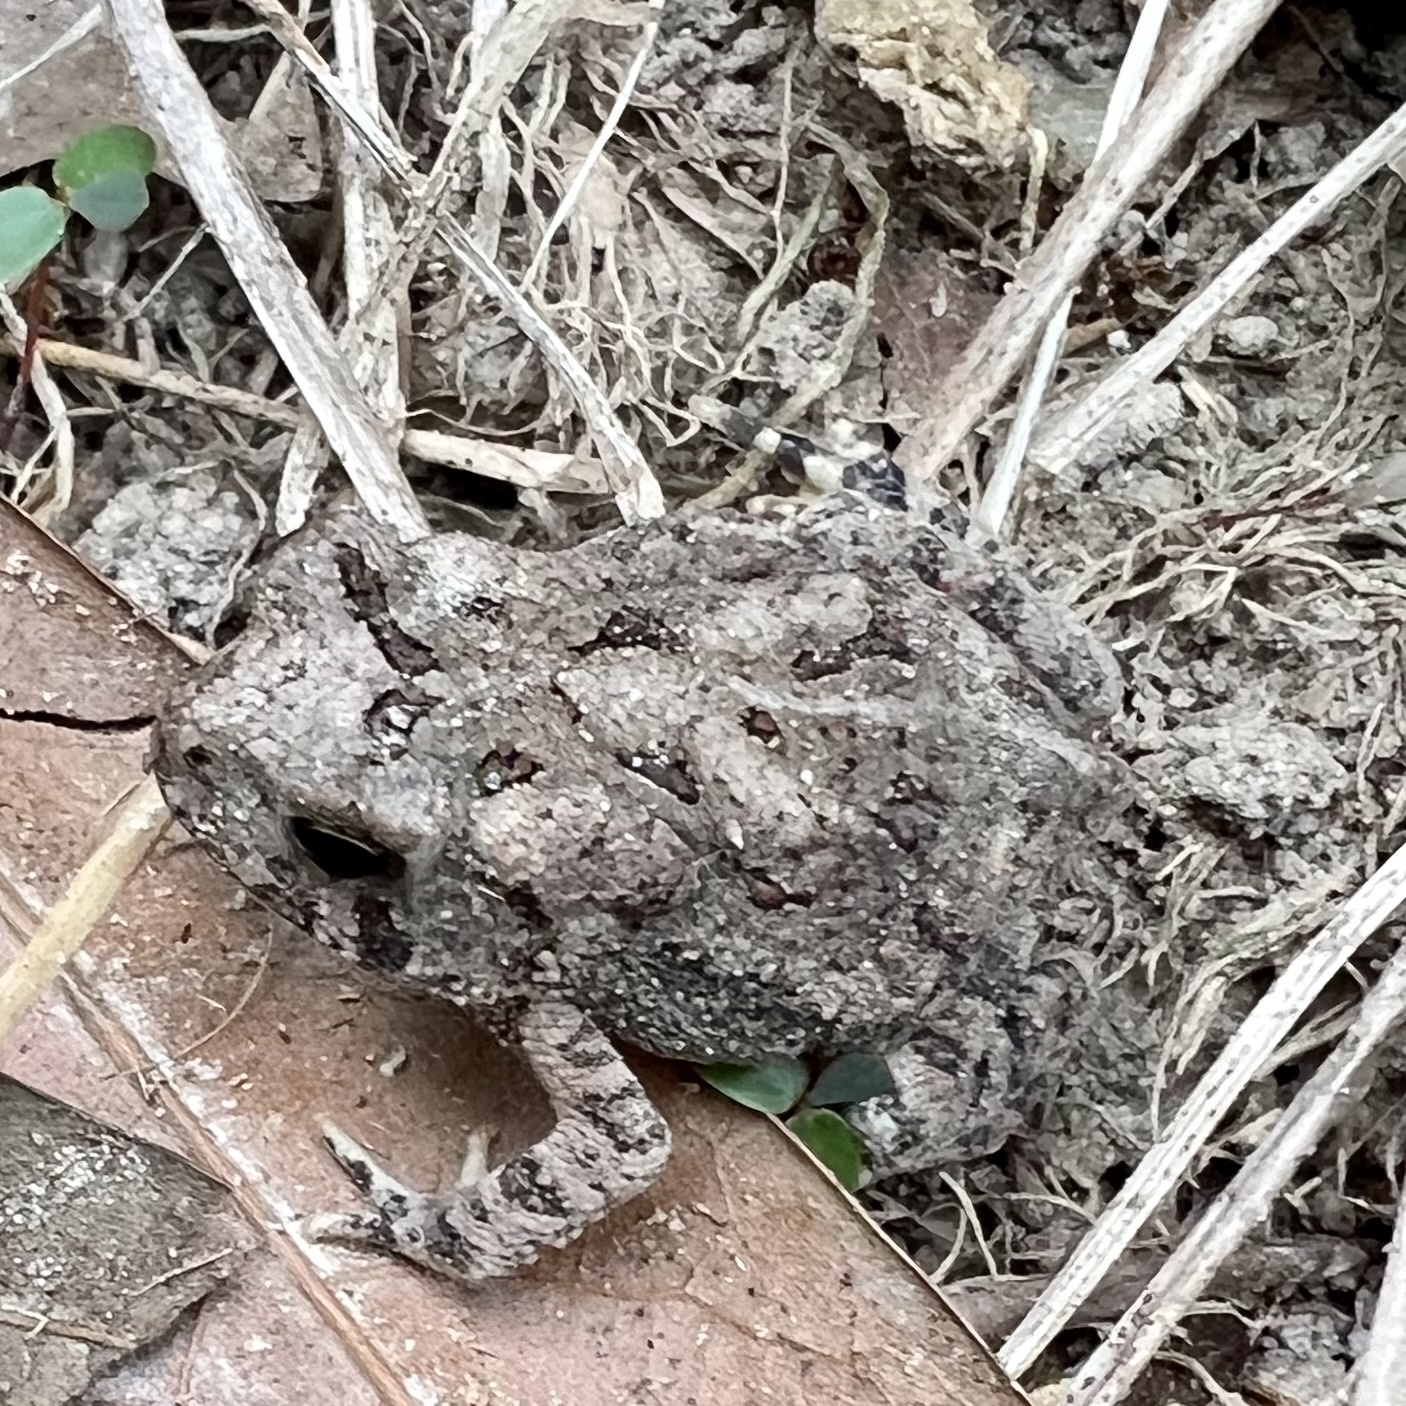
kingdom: Animalia
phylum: Chordata
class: Amphibia
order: Anura
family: Bufonidae
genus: Anaxyrus
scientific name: Anaxyrus fowleri
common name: Fowler's toad
